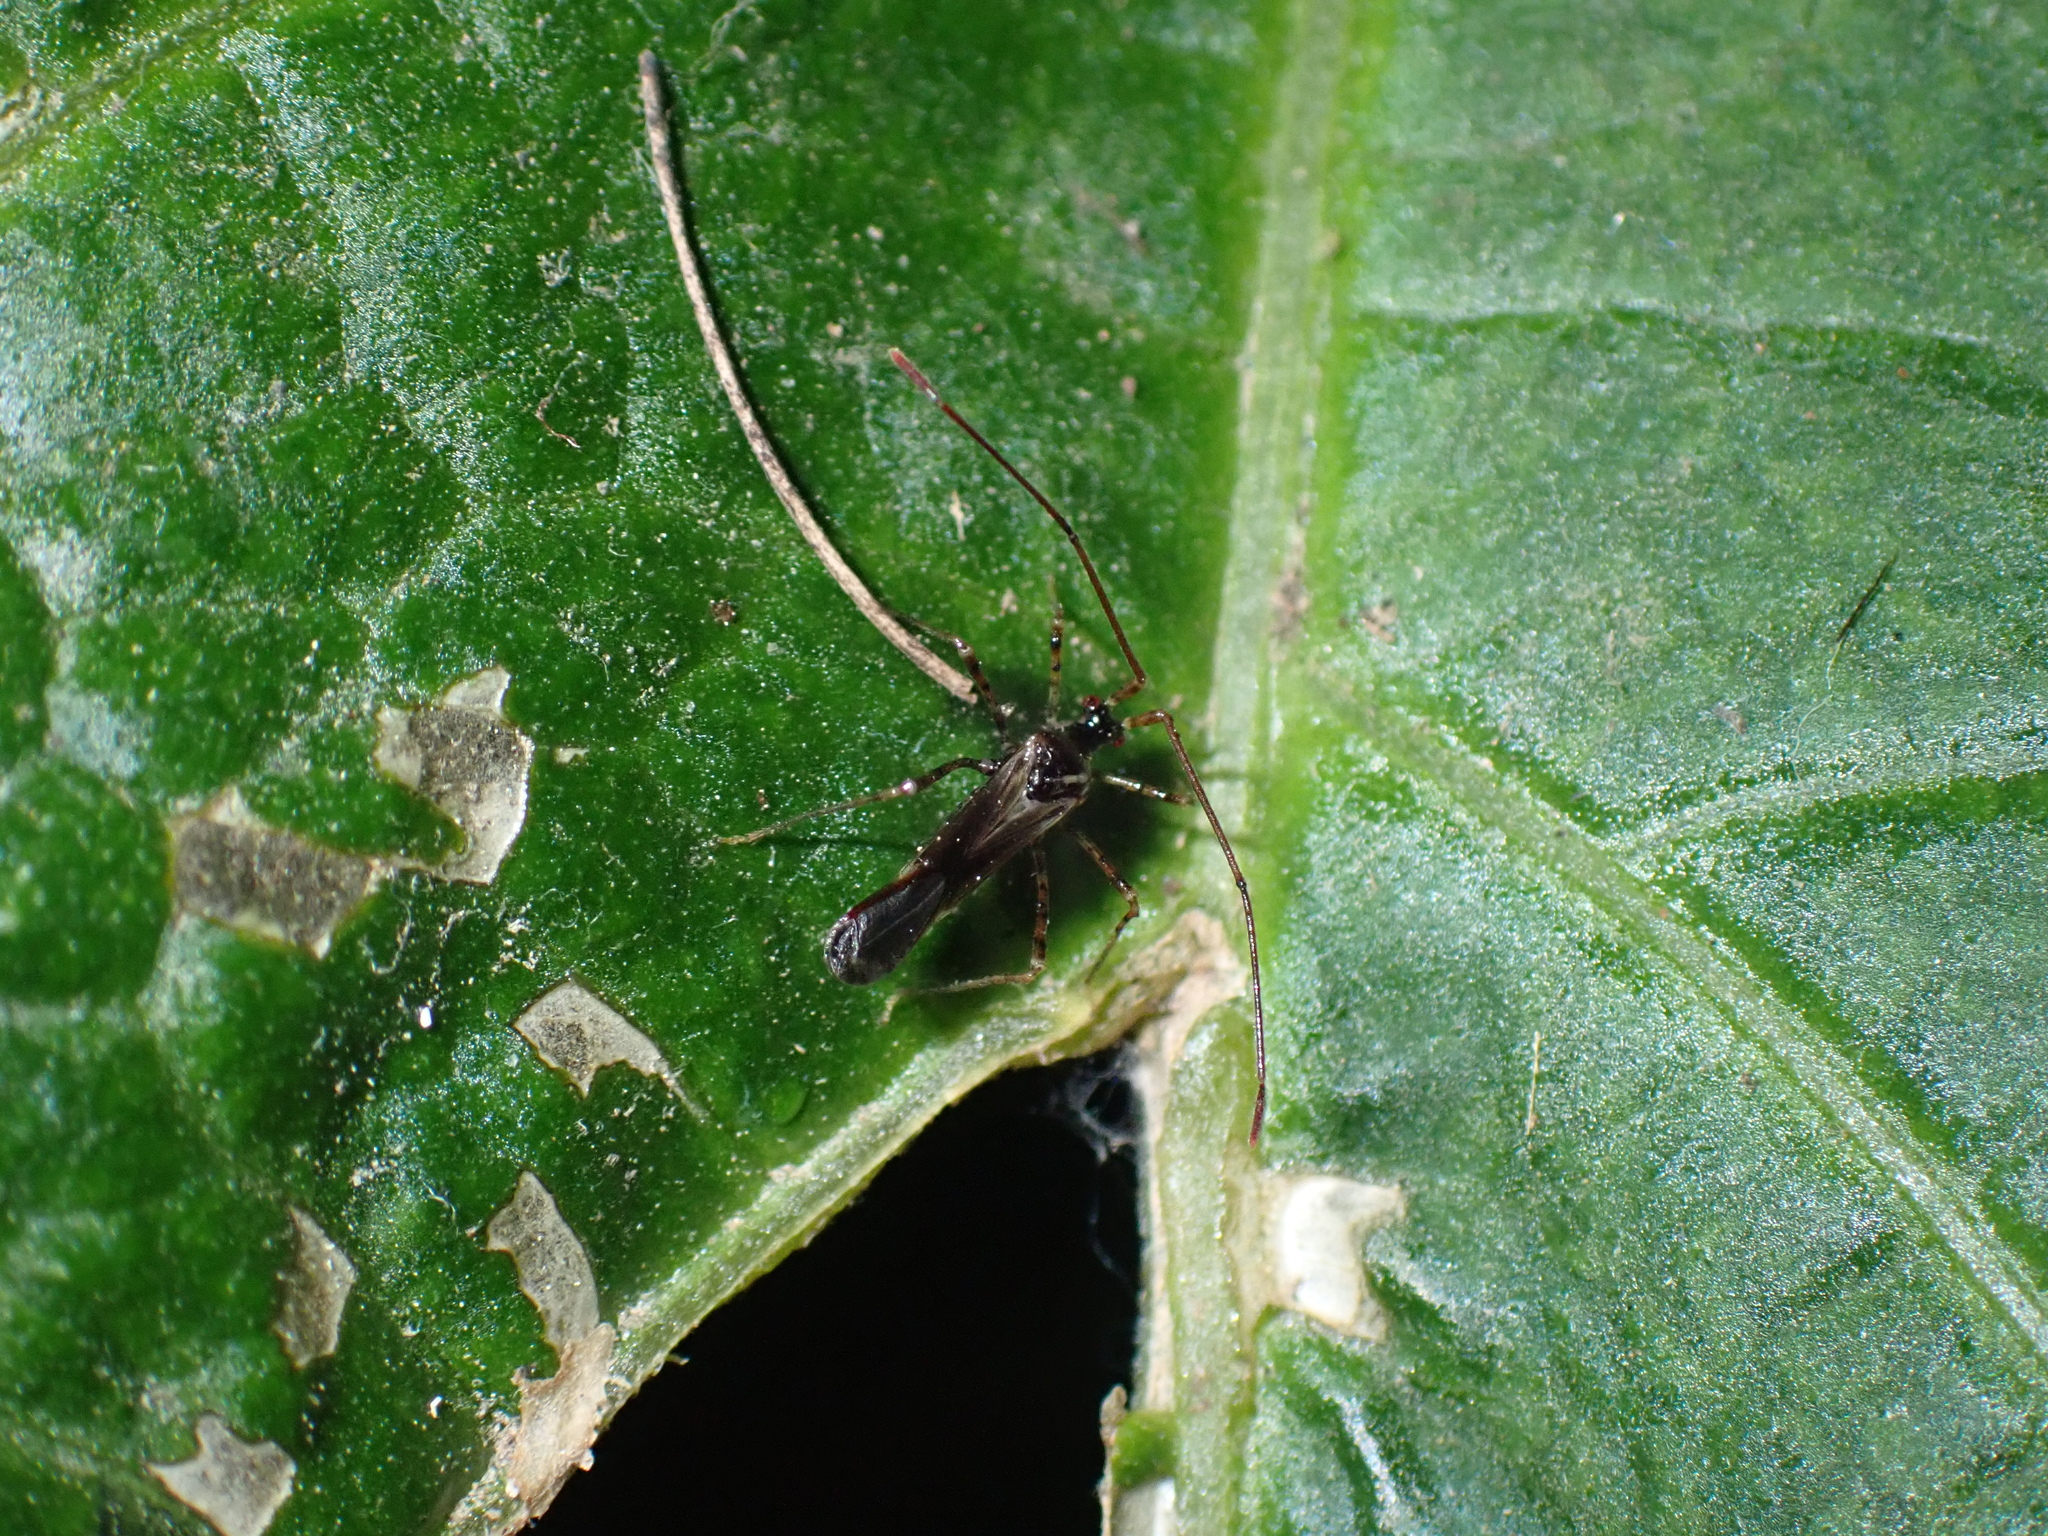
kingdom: Animalia
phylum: Arthropoda
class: Insecta
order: Hemiptera
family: Miridae
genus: Helopeltis
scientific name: Helopeltis cinchonae
